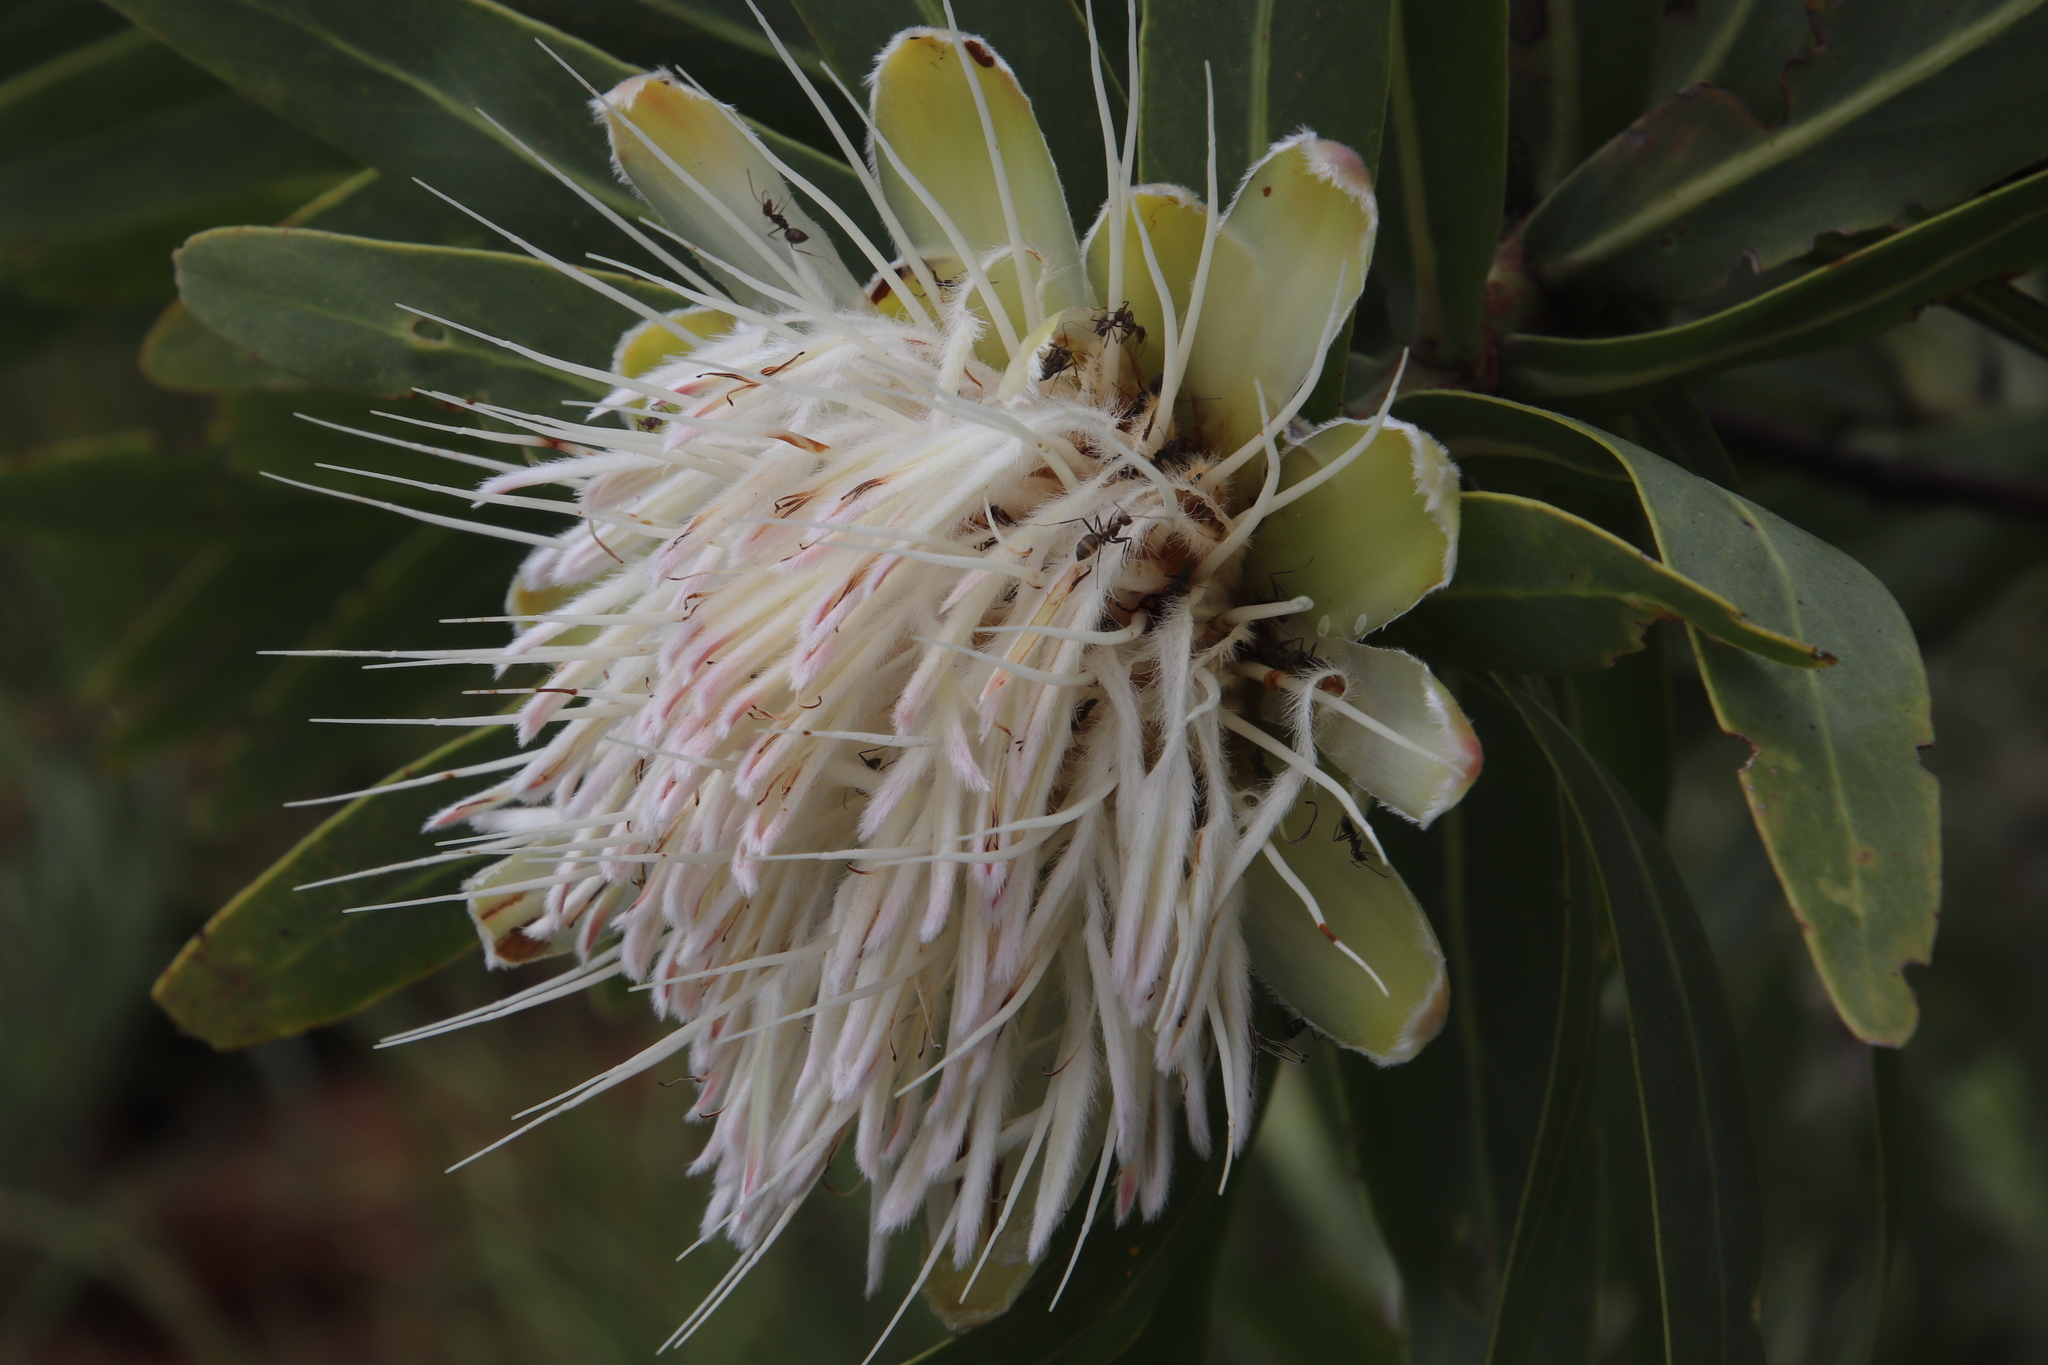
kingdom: Plantae
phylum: Tracheophyta
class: Magnoliopsida
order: Proteales
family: Proteaceae
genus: Protea
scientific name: Protea gaguedi
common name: African protea
